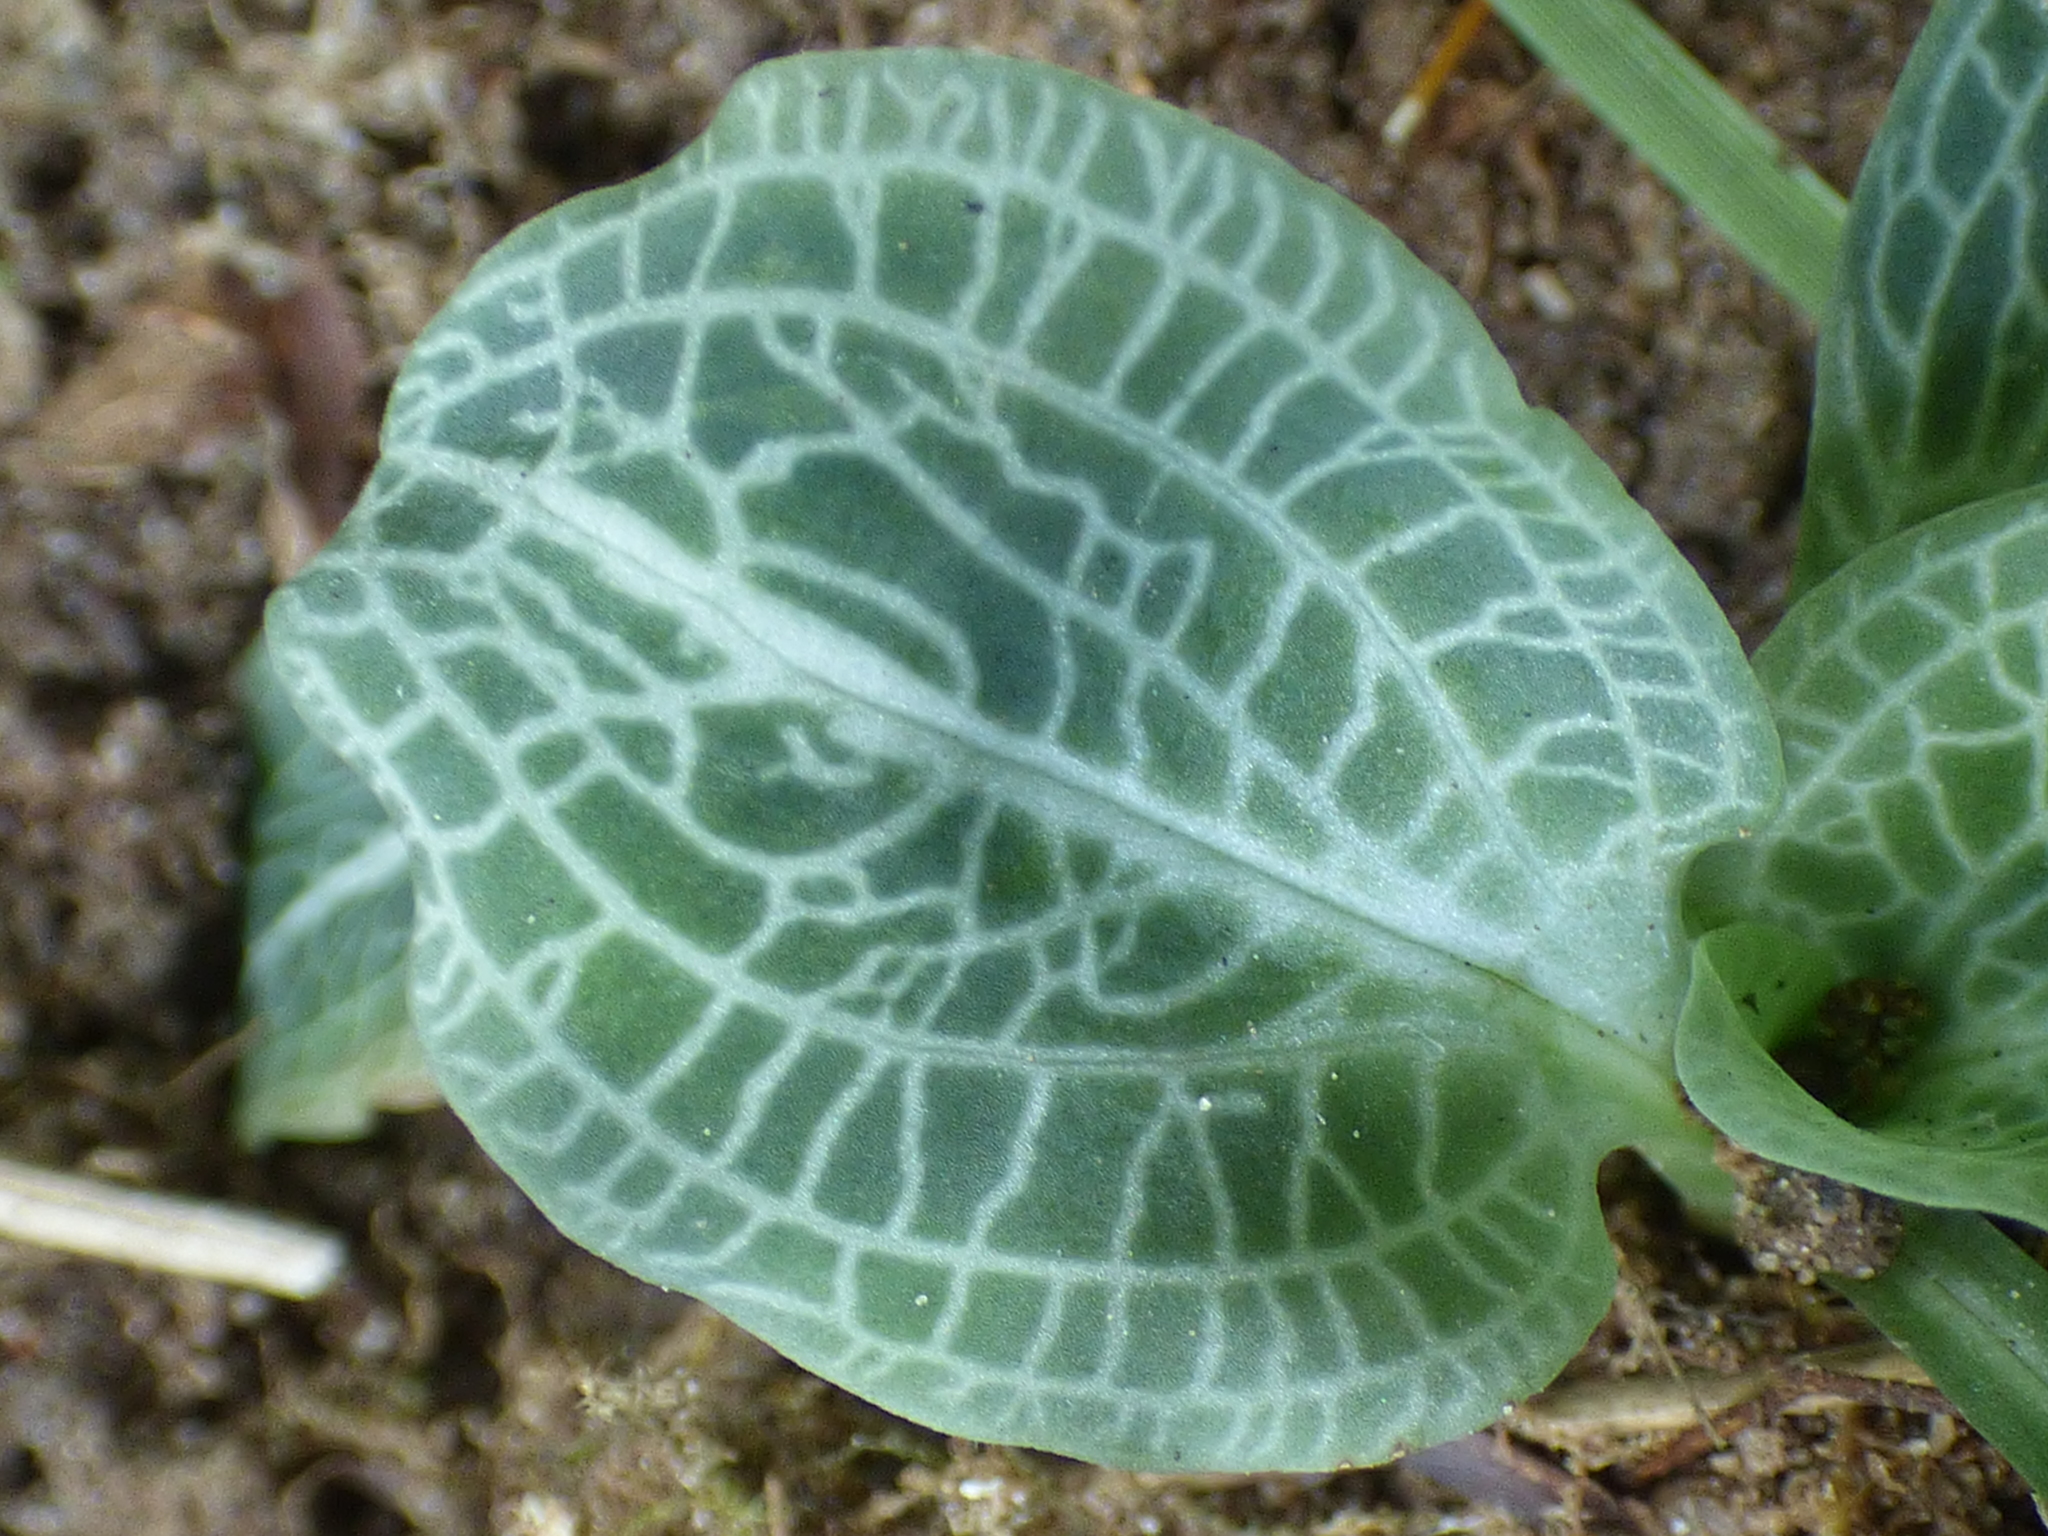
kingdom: Plantae
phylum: Tracheophyta
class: Liliopsida
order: Asparagales
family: Orchidaceae
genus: Goodyera
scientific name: Goodyera pubescens
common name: Downy rattlesnake-plantain
